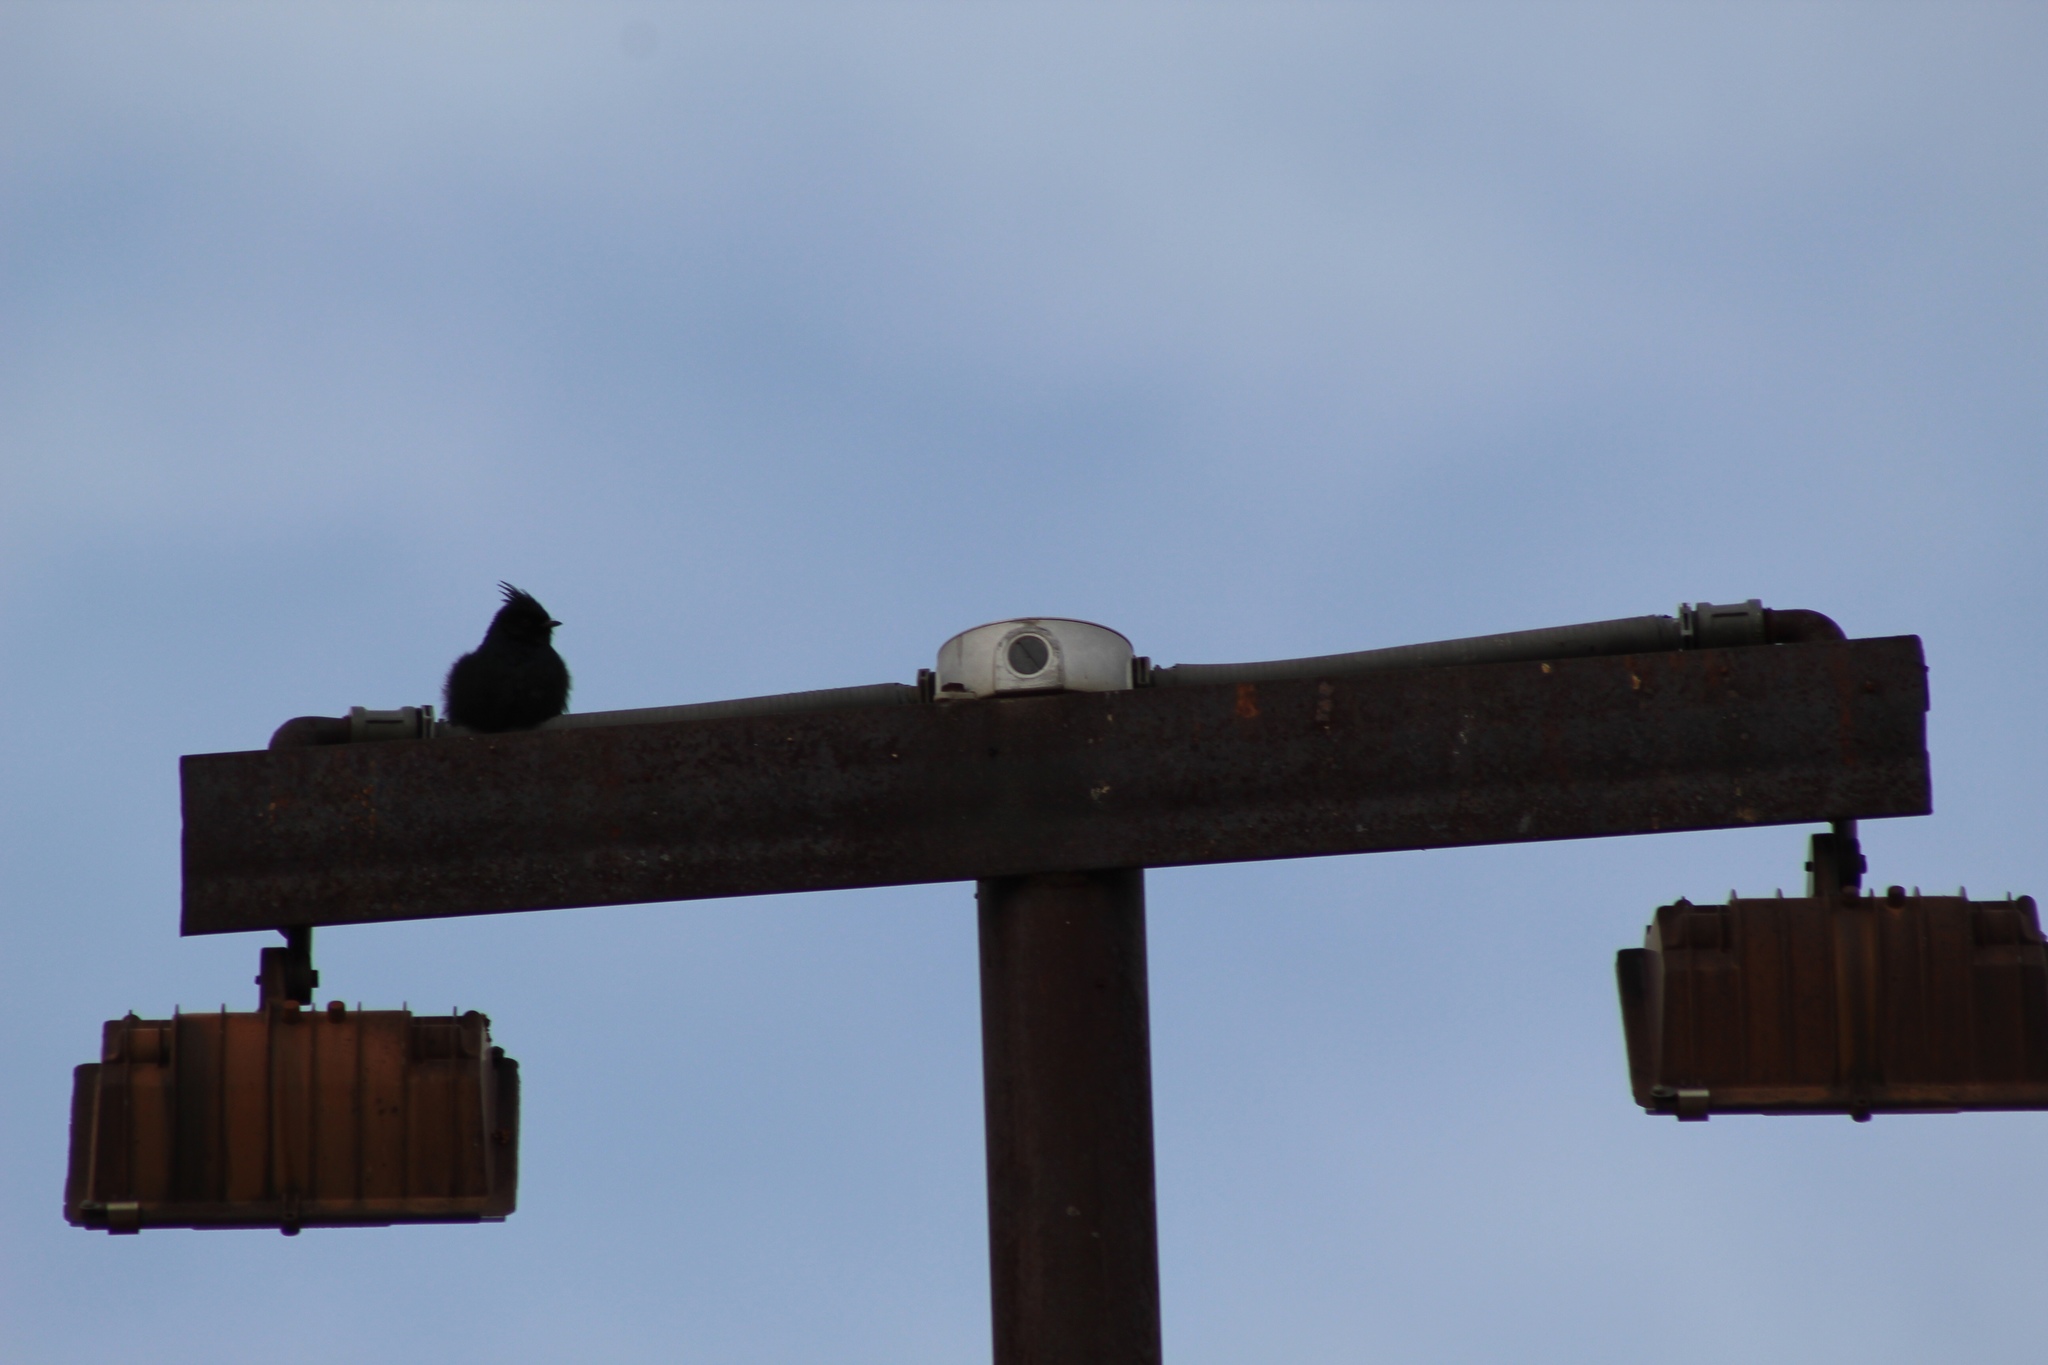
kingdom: Animalia
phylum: Chordata
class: Aves
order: Passeriformes
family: Ptilogonatidae
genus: Phainopepla
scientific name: Phainopepla nitens
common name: Phainopepla
